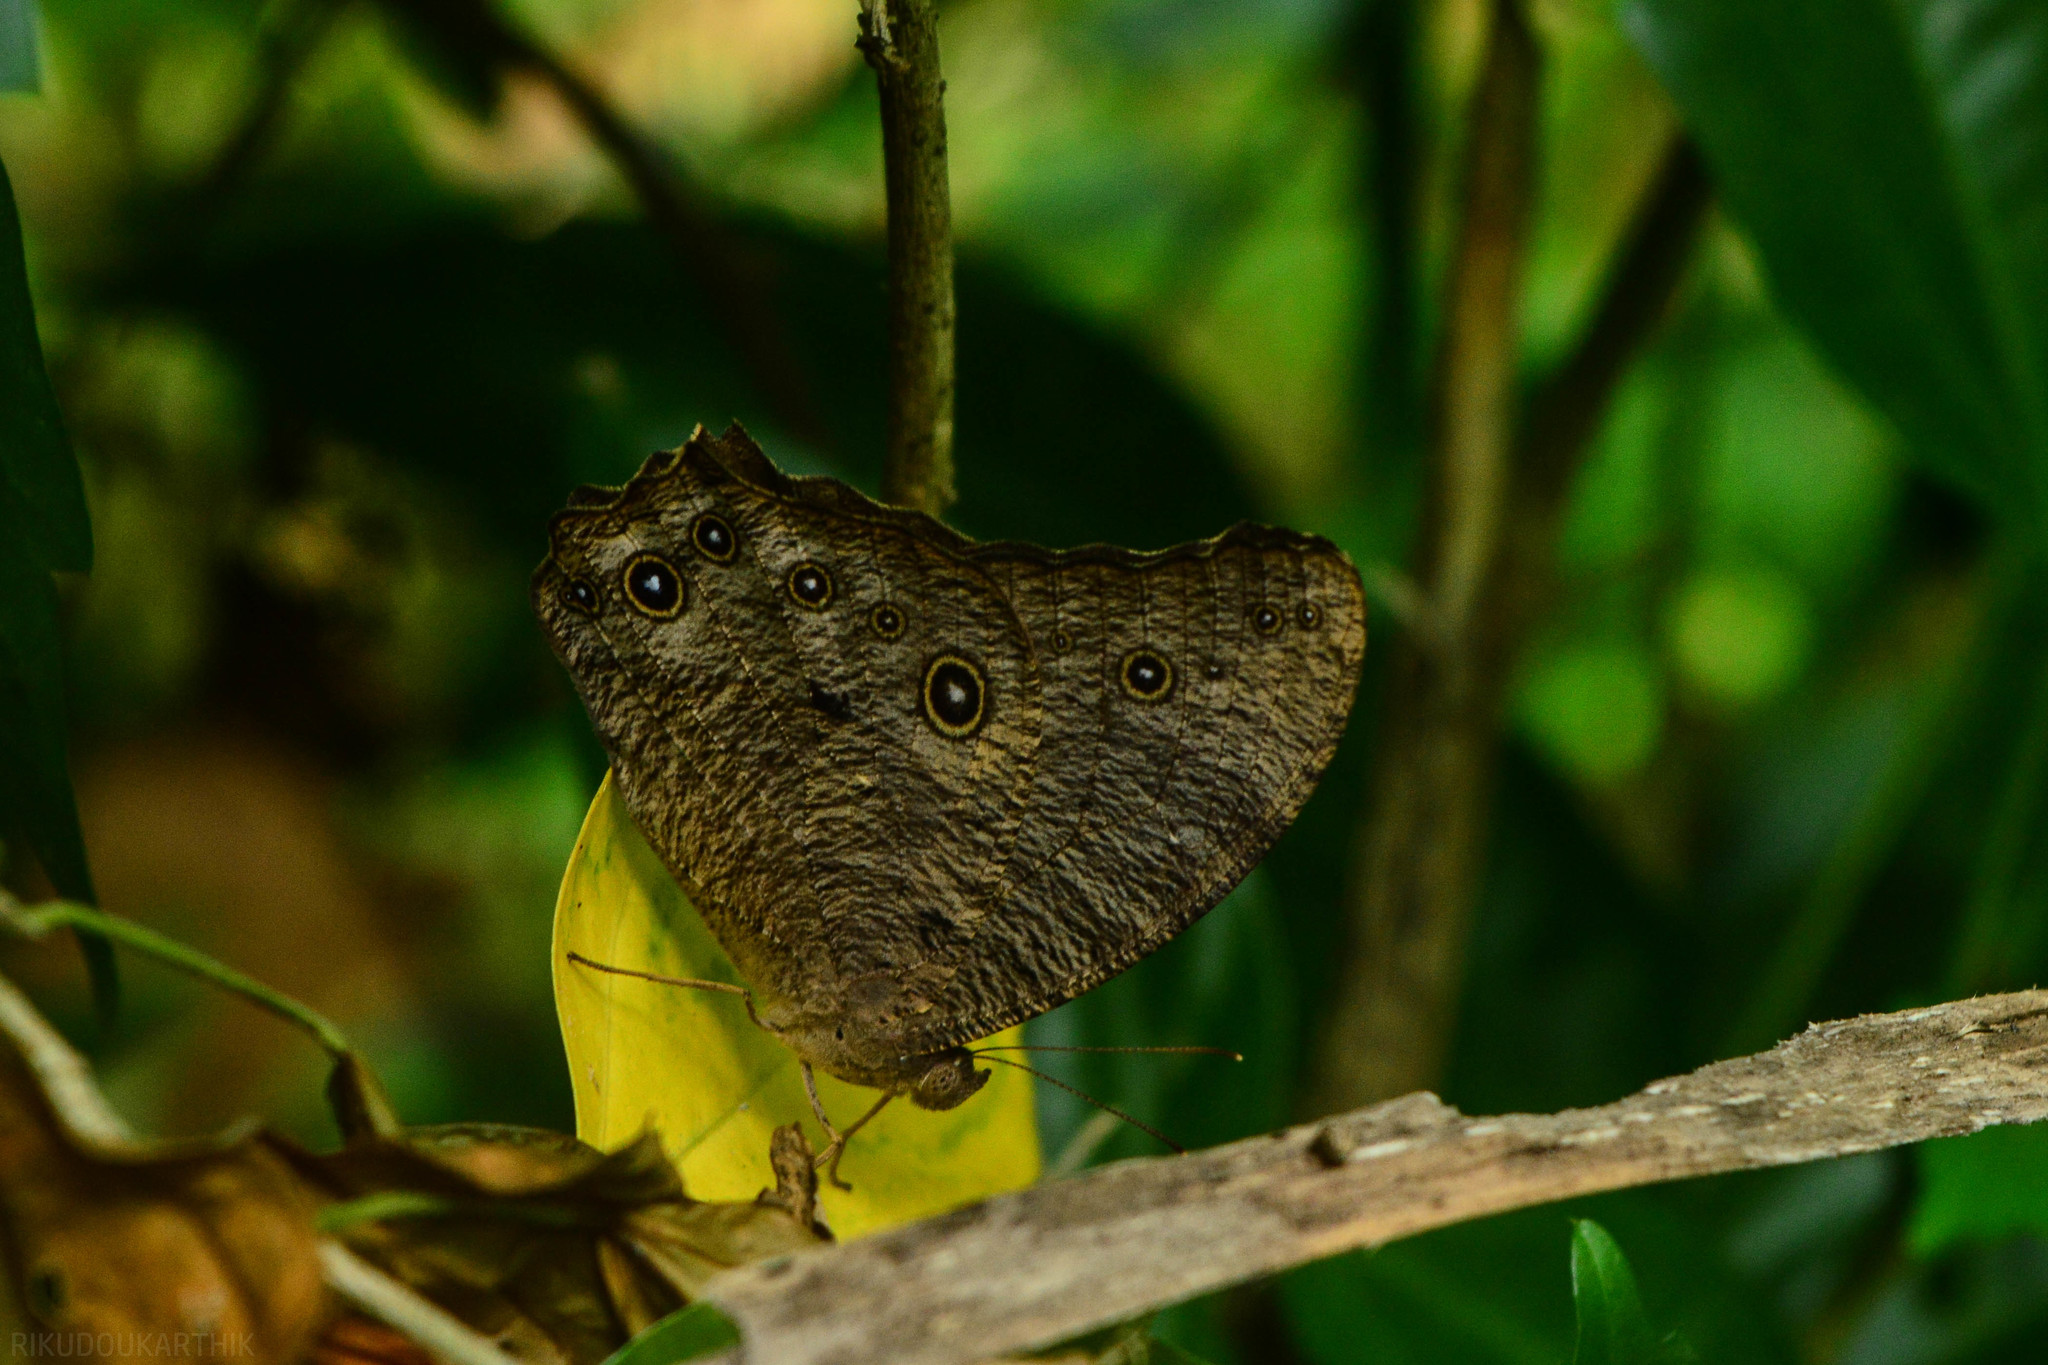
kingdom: Animalia
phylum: Arthropoda
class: Insecta
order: Lepidoptera
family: Nymphalidae
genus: Melanitis
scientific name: Melanitis leda
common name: Twilight brown
